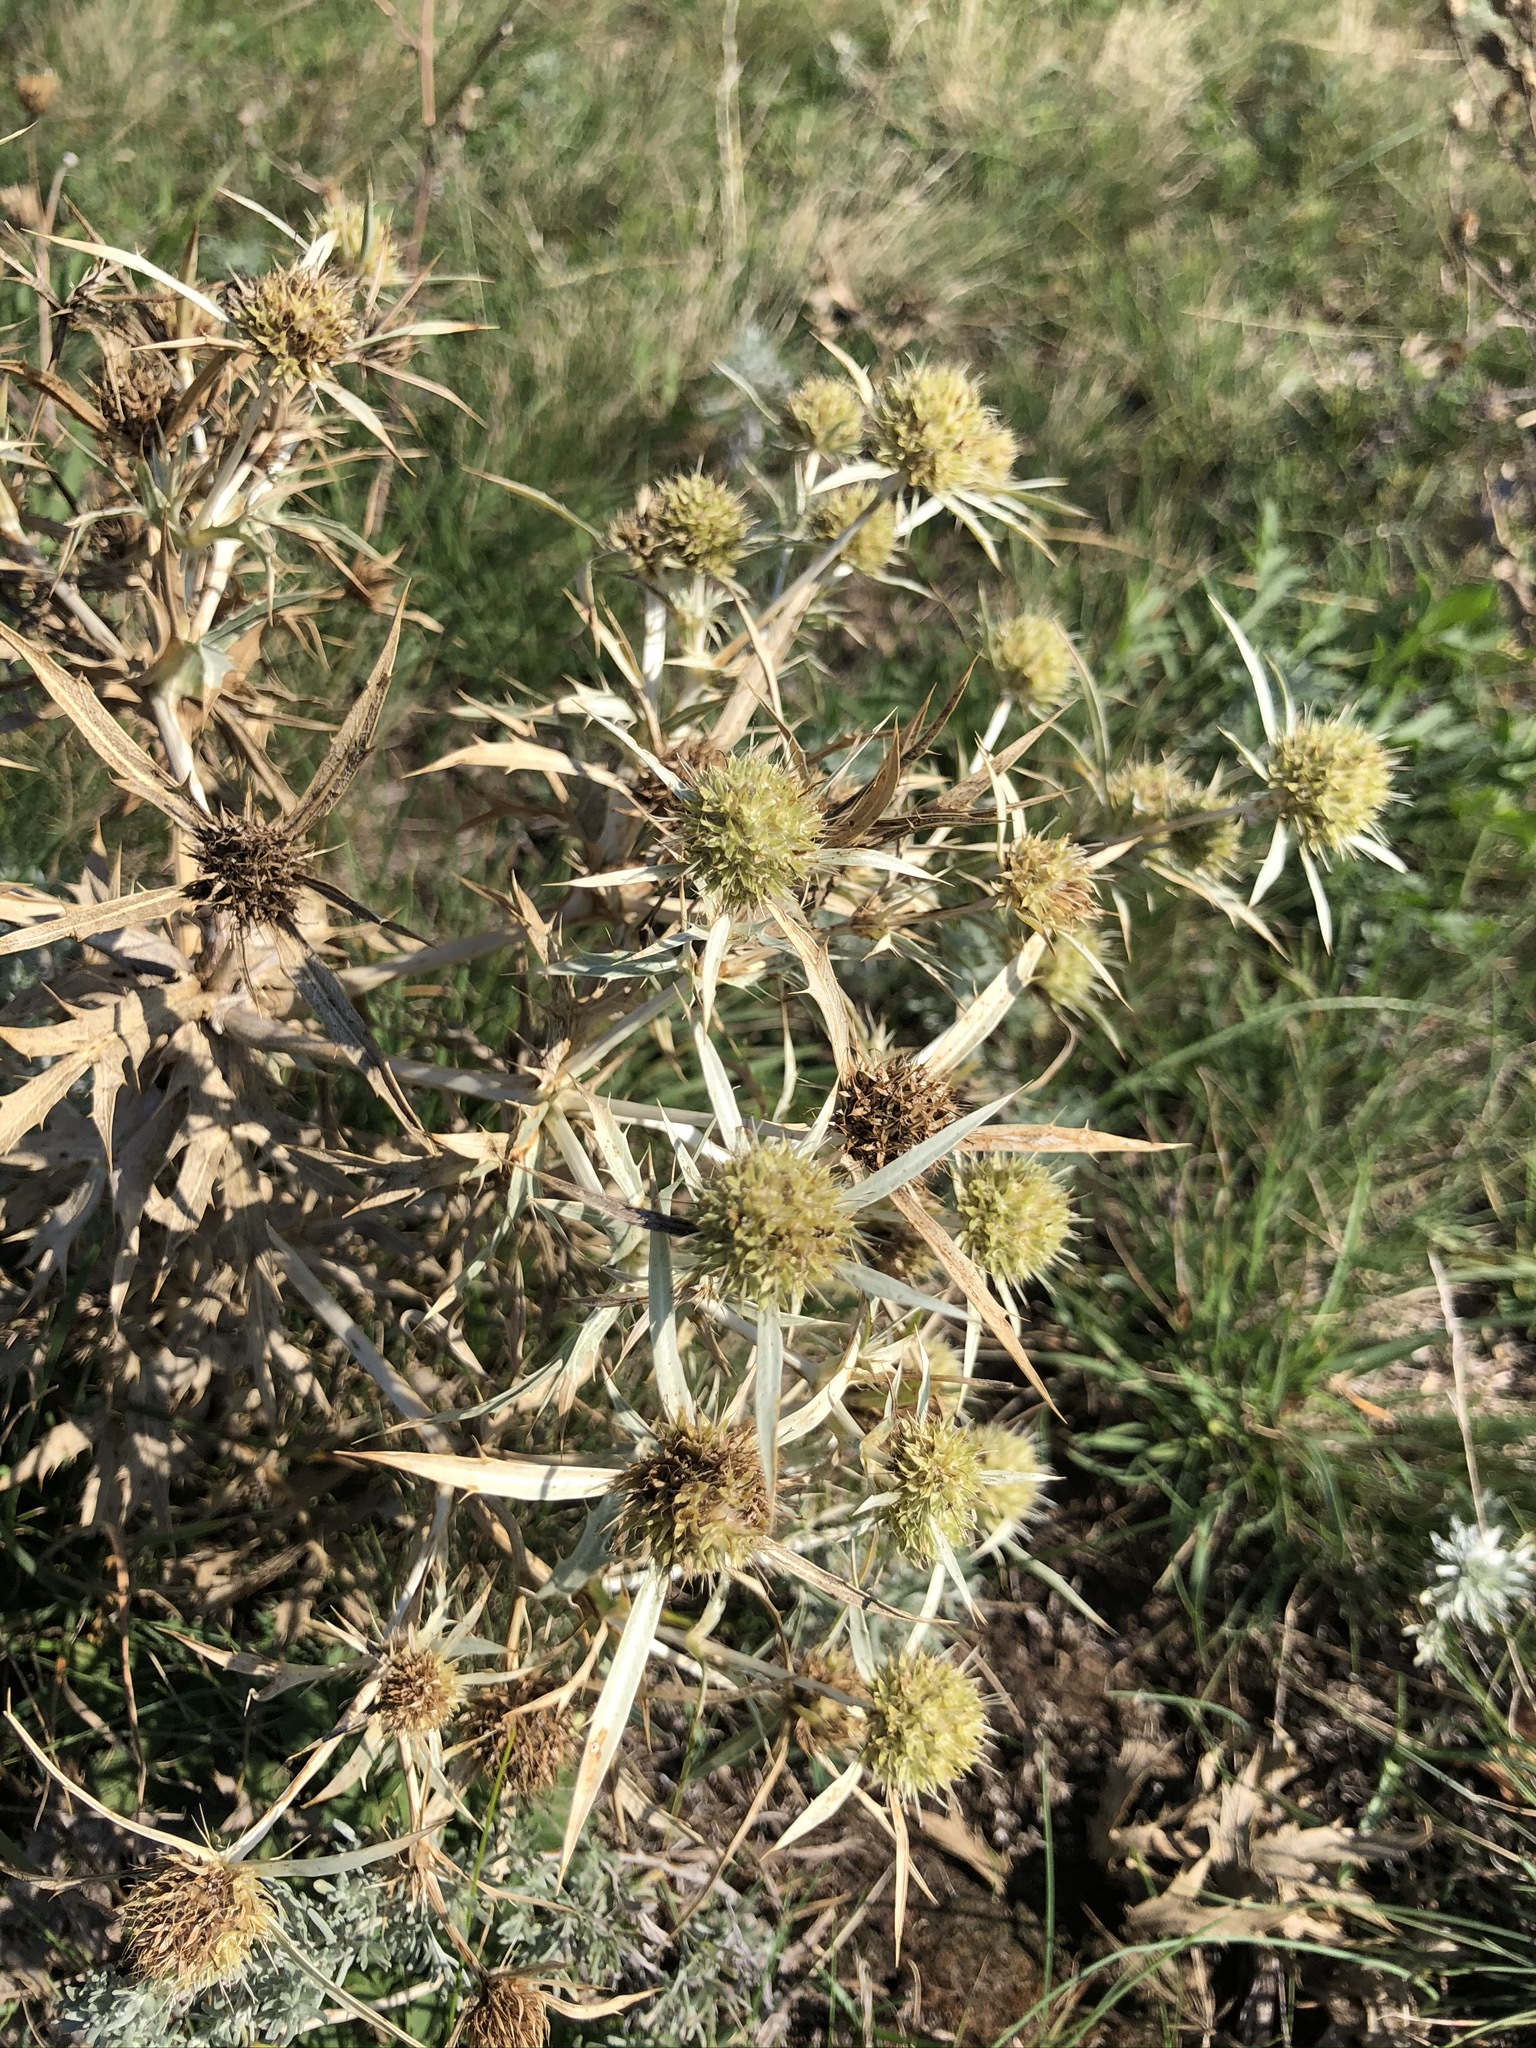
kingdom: Plantae
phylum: Tracheophyta
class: Magnoliopsida
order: Apiales
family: Apiaceae
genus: Eryngium
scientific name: Eryngium campestre
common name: Field eryngo
